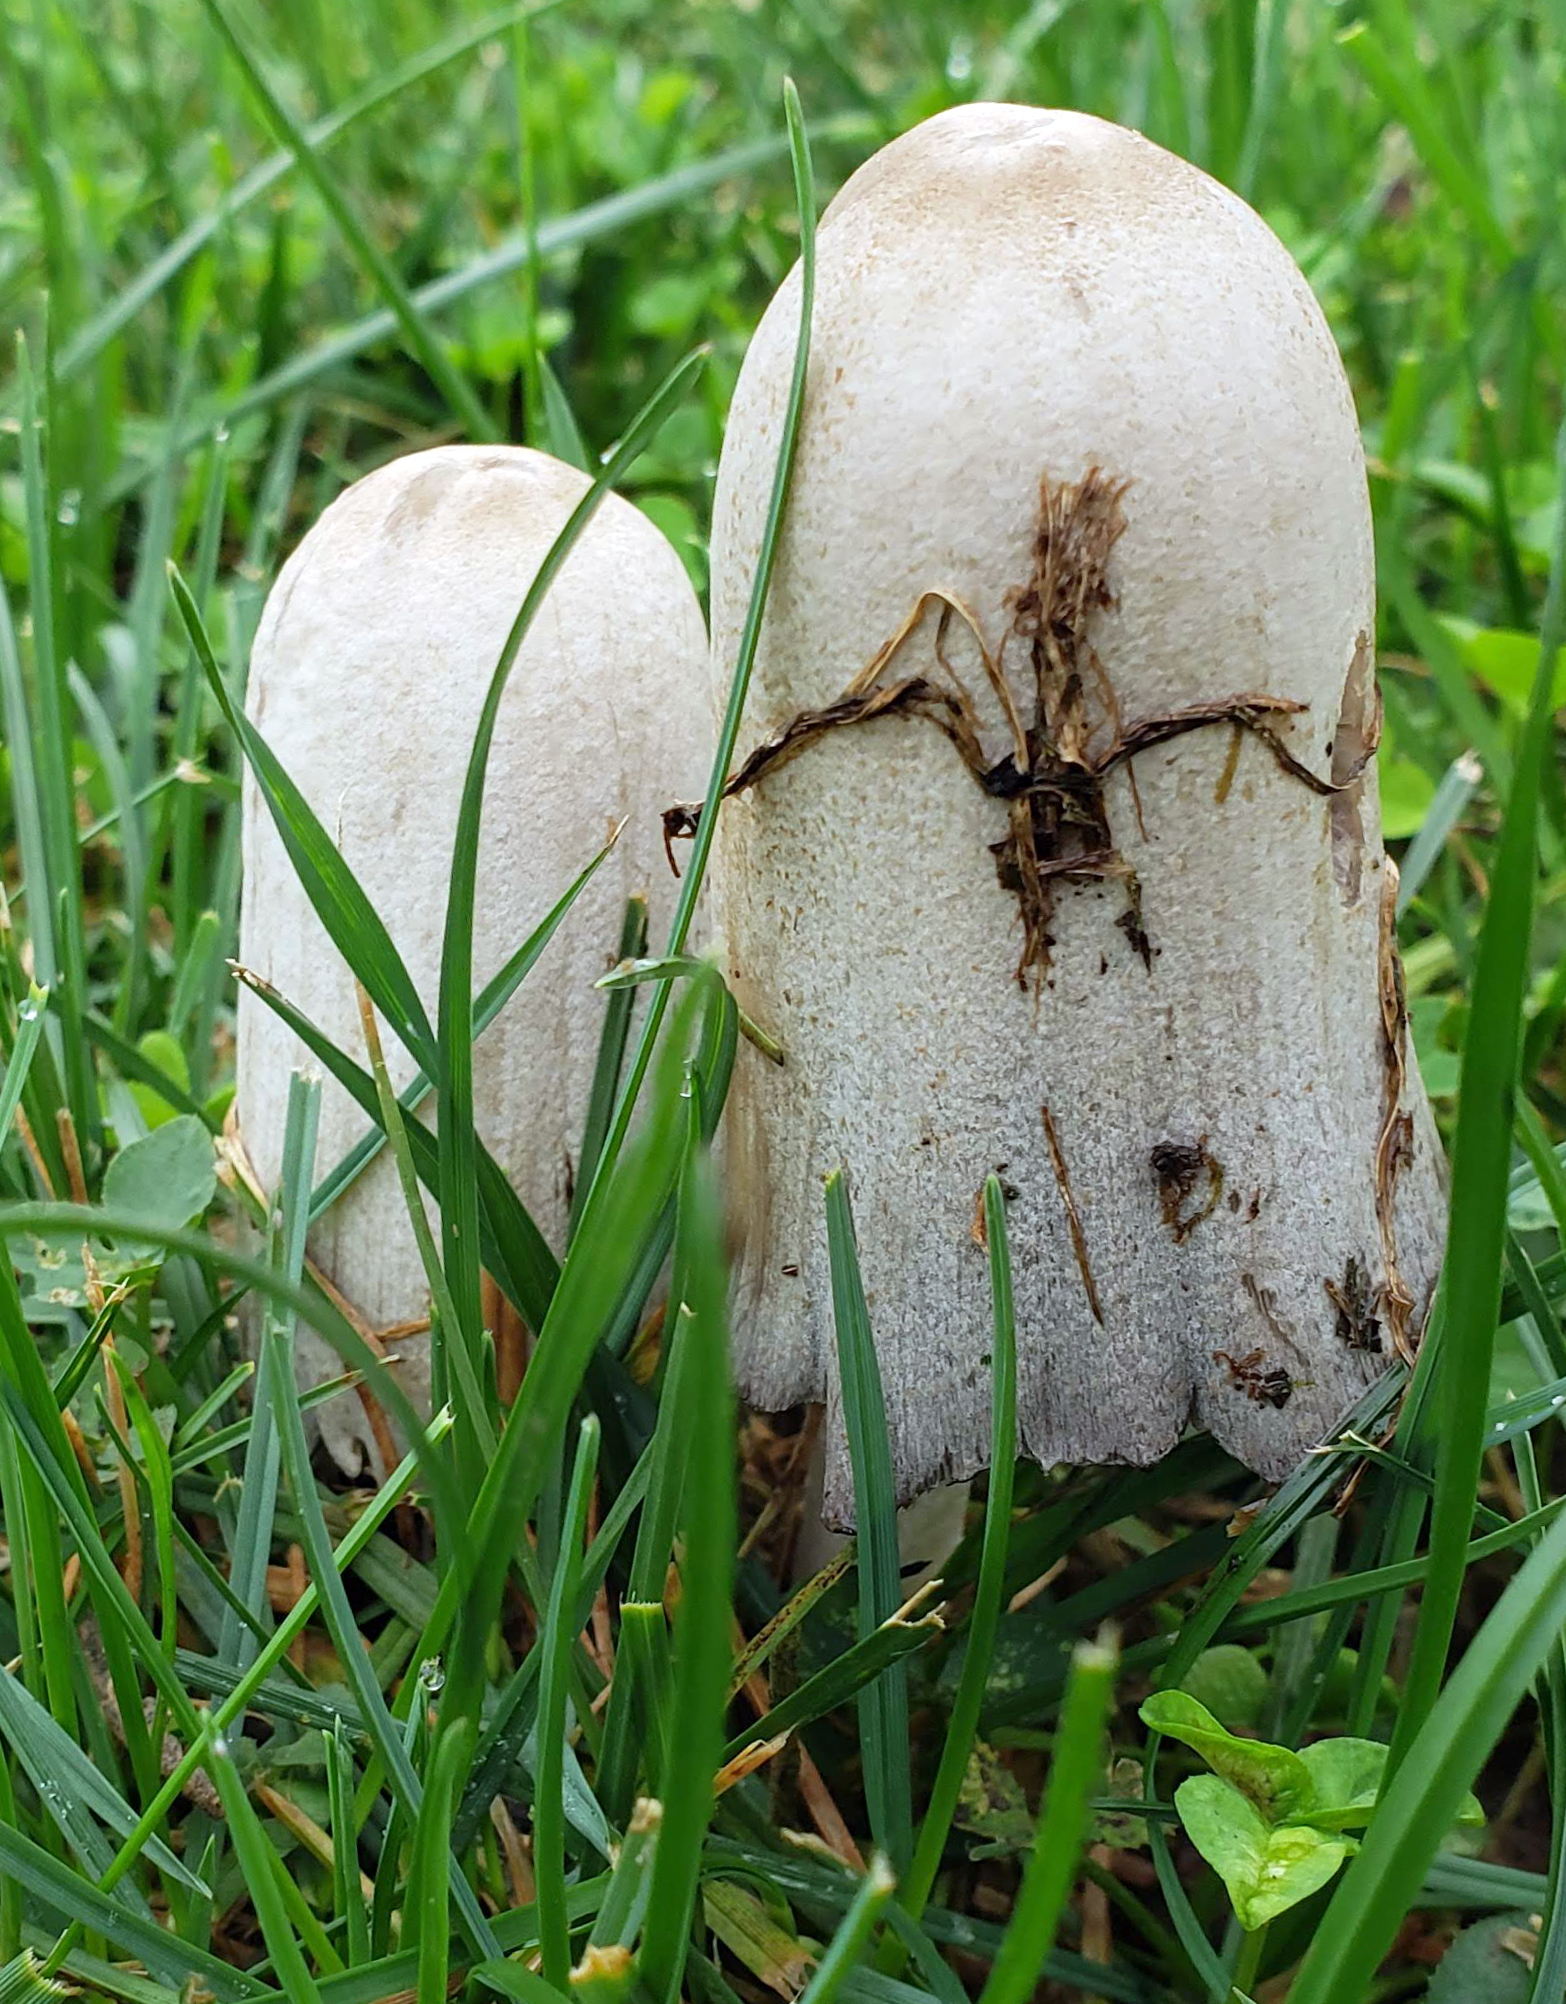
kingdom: Fungi
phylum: Basidiomycota
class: Agaricomycetes
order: Agaricales
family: Psathyrellaceae
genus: Coprinopsis
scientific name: Coprinopsis atramentaria
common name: Common ink-cap
